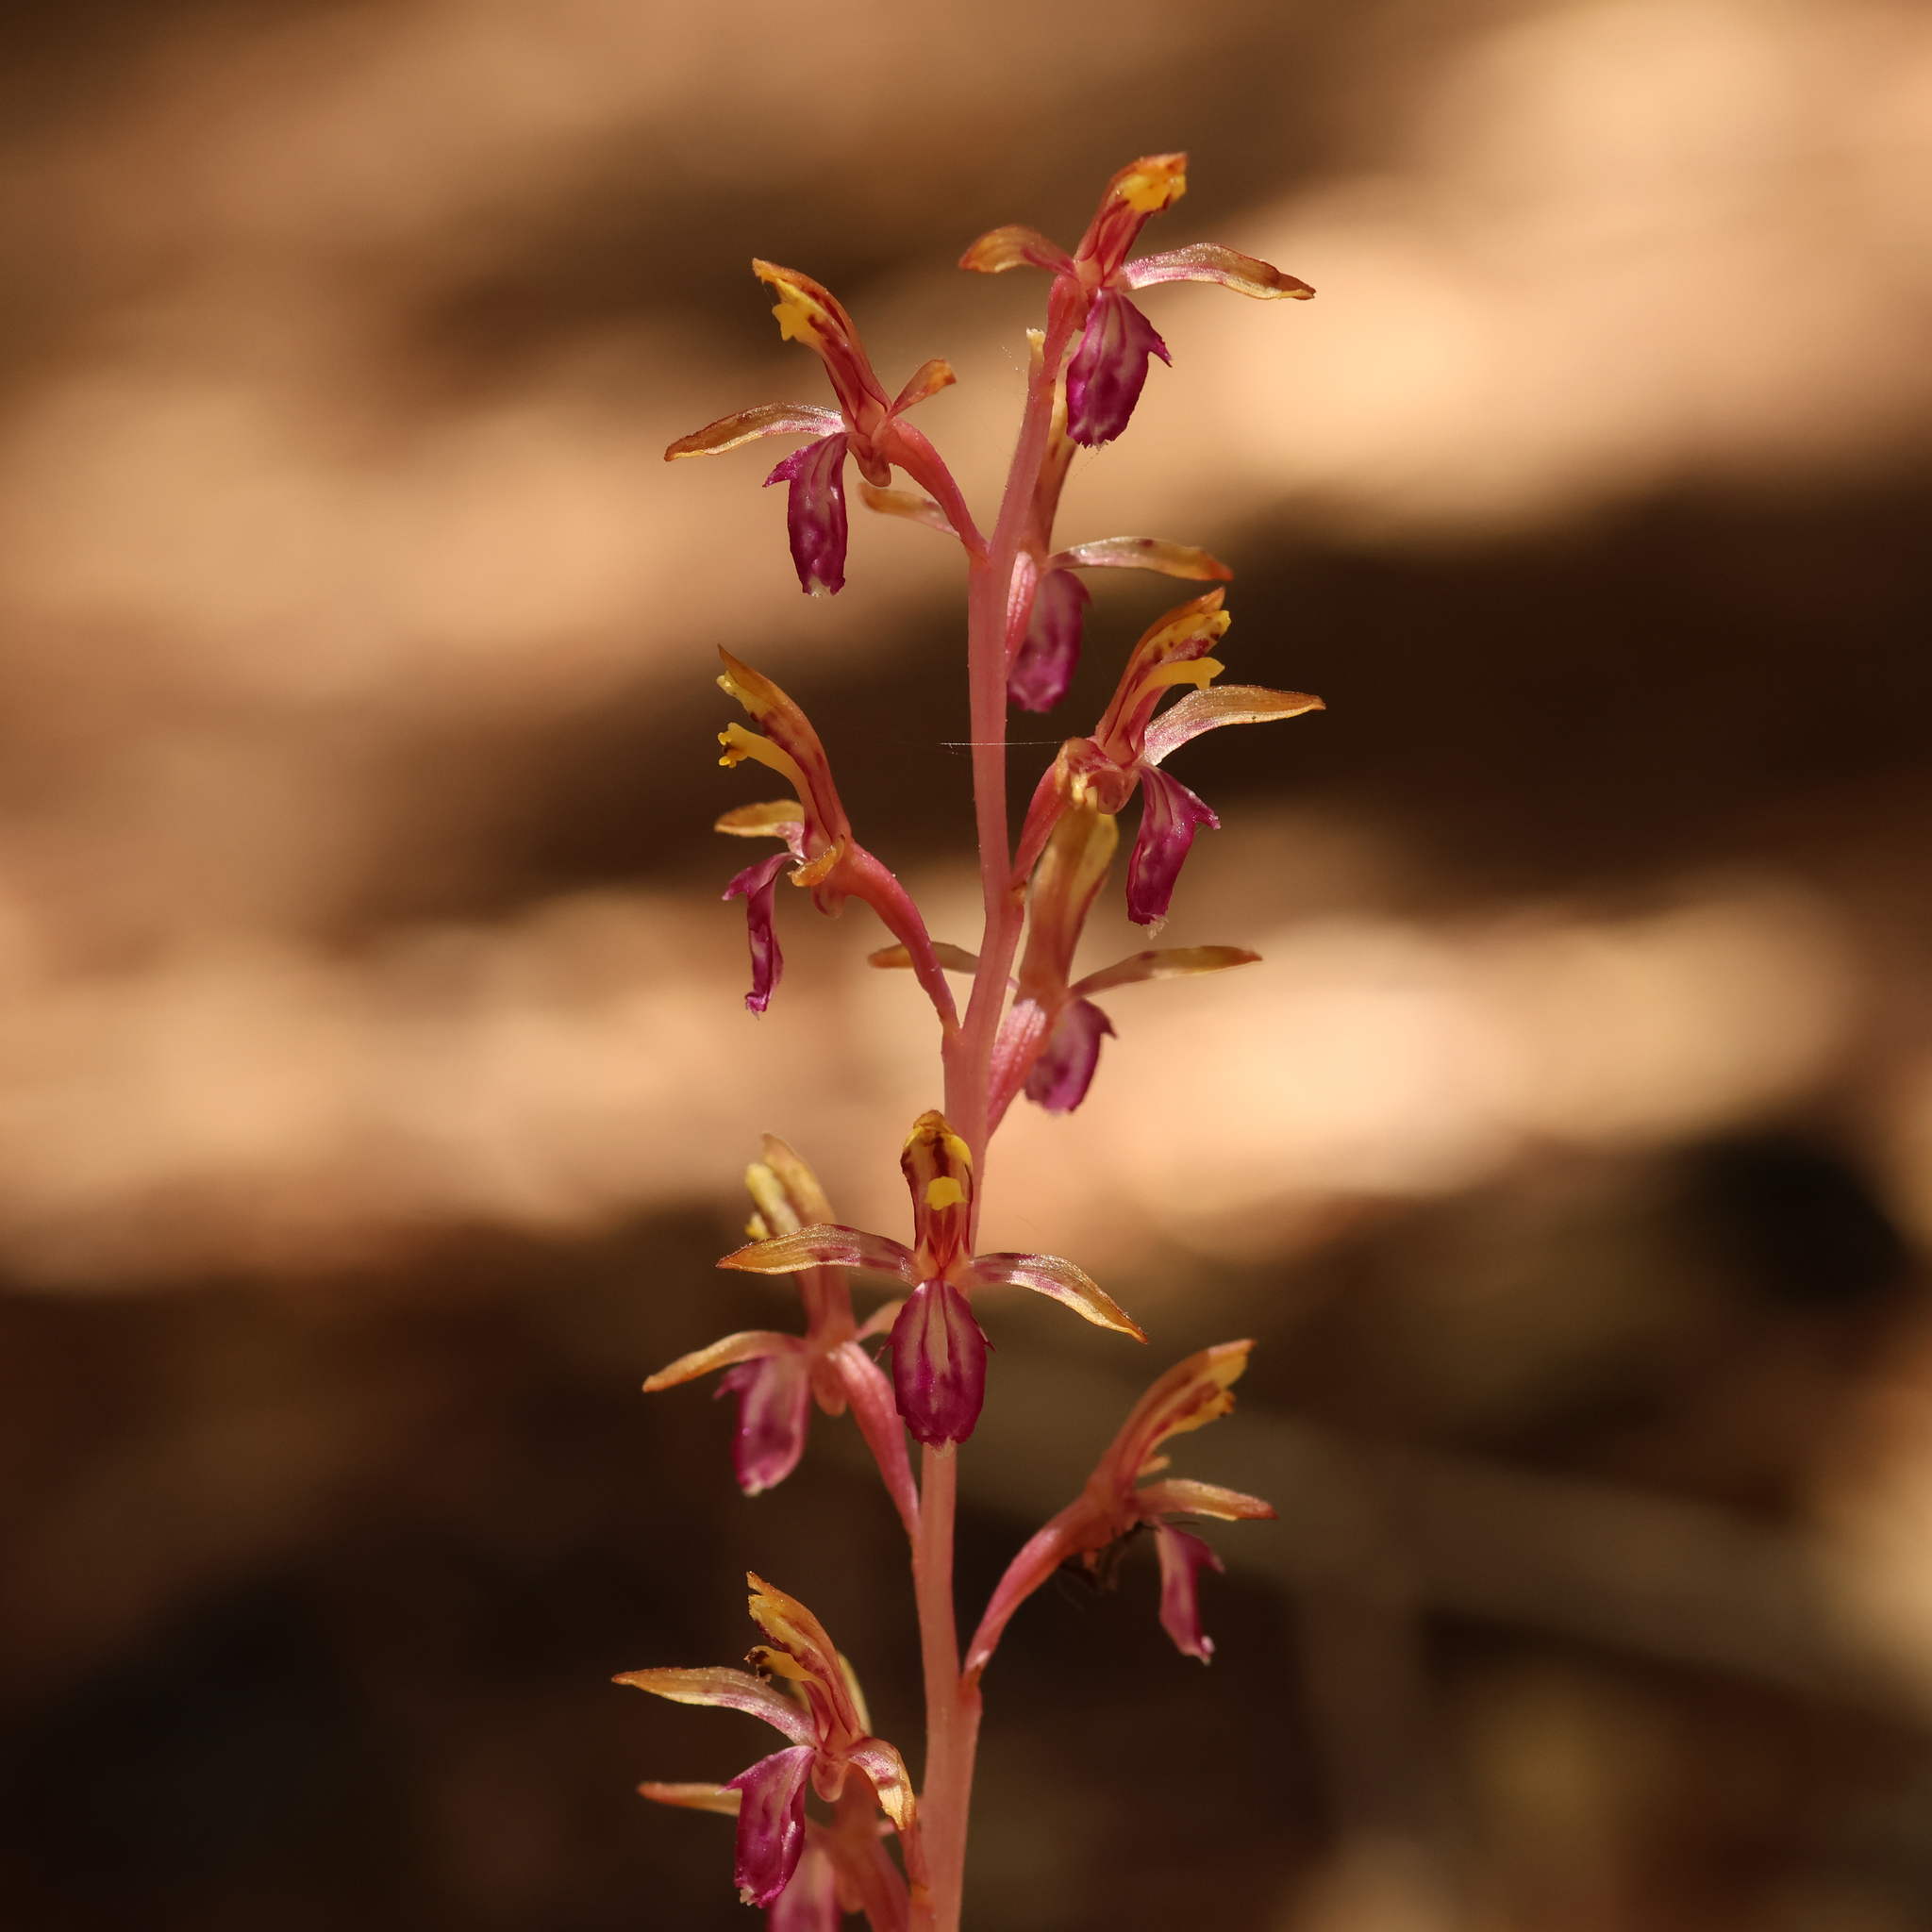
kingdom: Plantae
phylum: Tracheophyta
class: Liliopsida
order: Asparagales
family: Orchidaceae
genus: Corallorhiza
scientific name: Corallorhiza mertensiana
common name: Pacific coralroot
